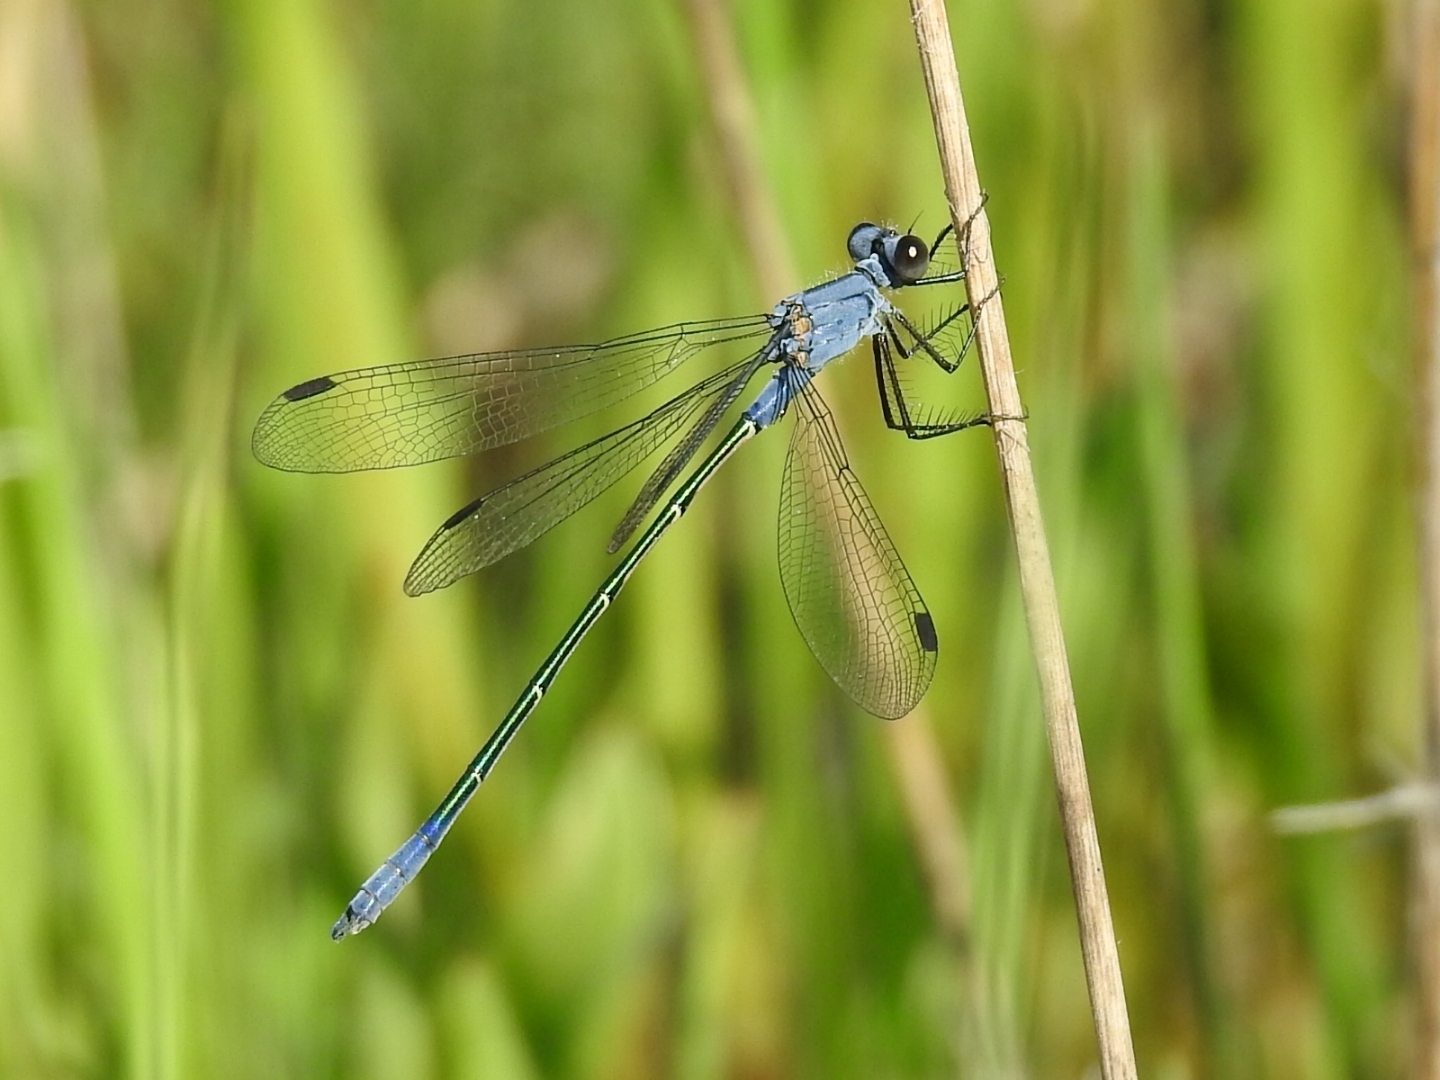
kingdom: Animalia
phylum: Arthropoda
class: Insecta
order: Odonata
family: Lestidae
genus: Lestes
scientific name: Lestes macrostigma
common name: Dark spreadwing
